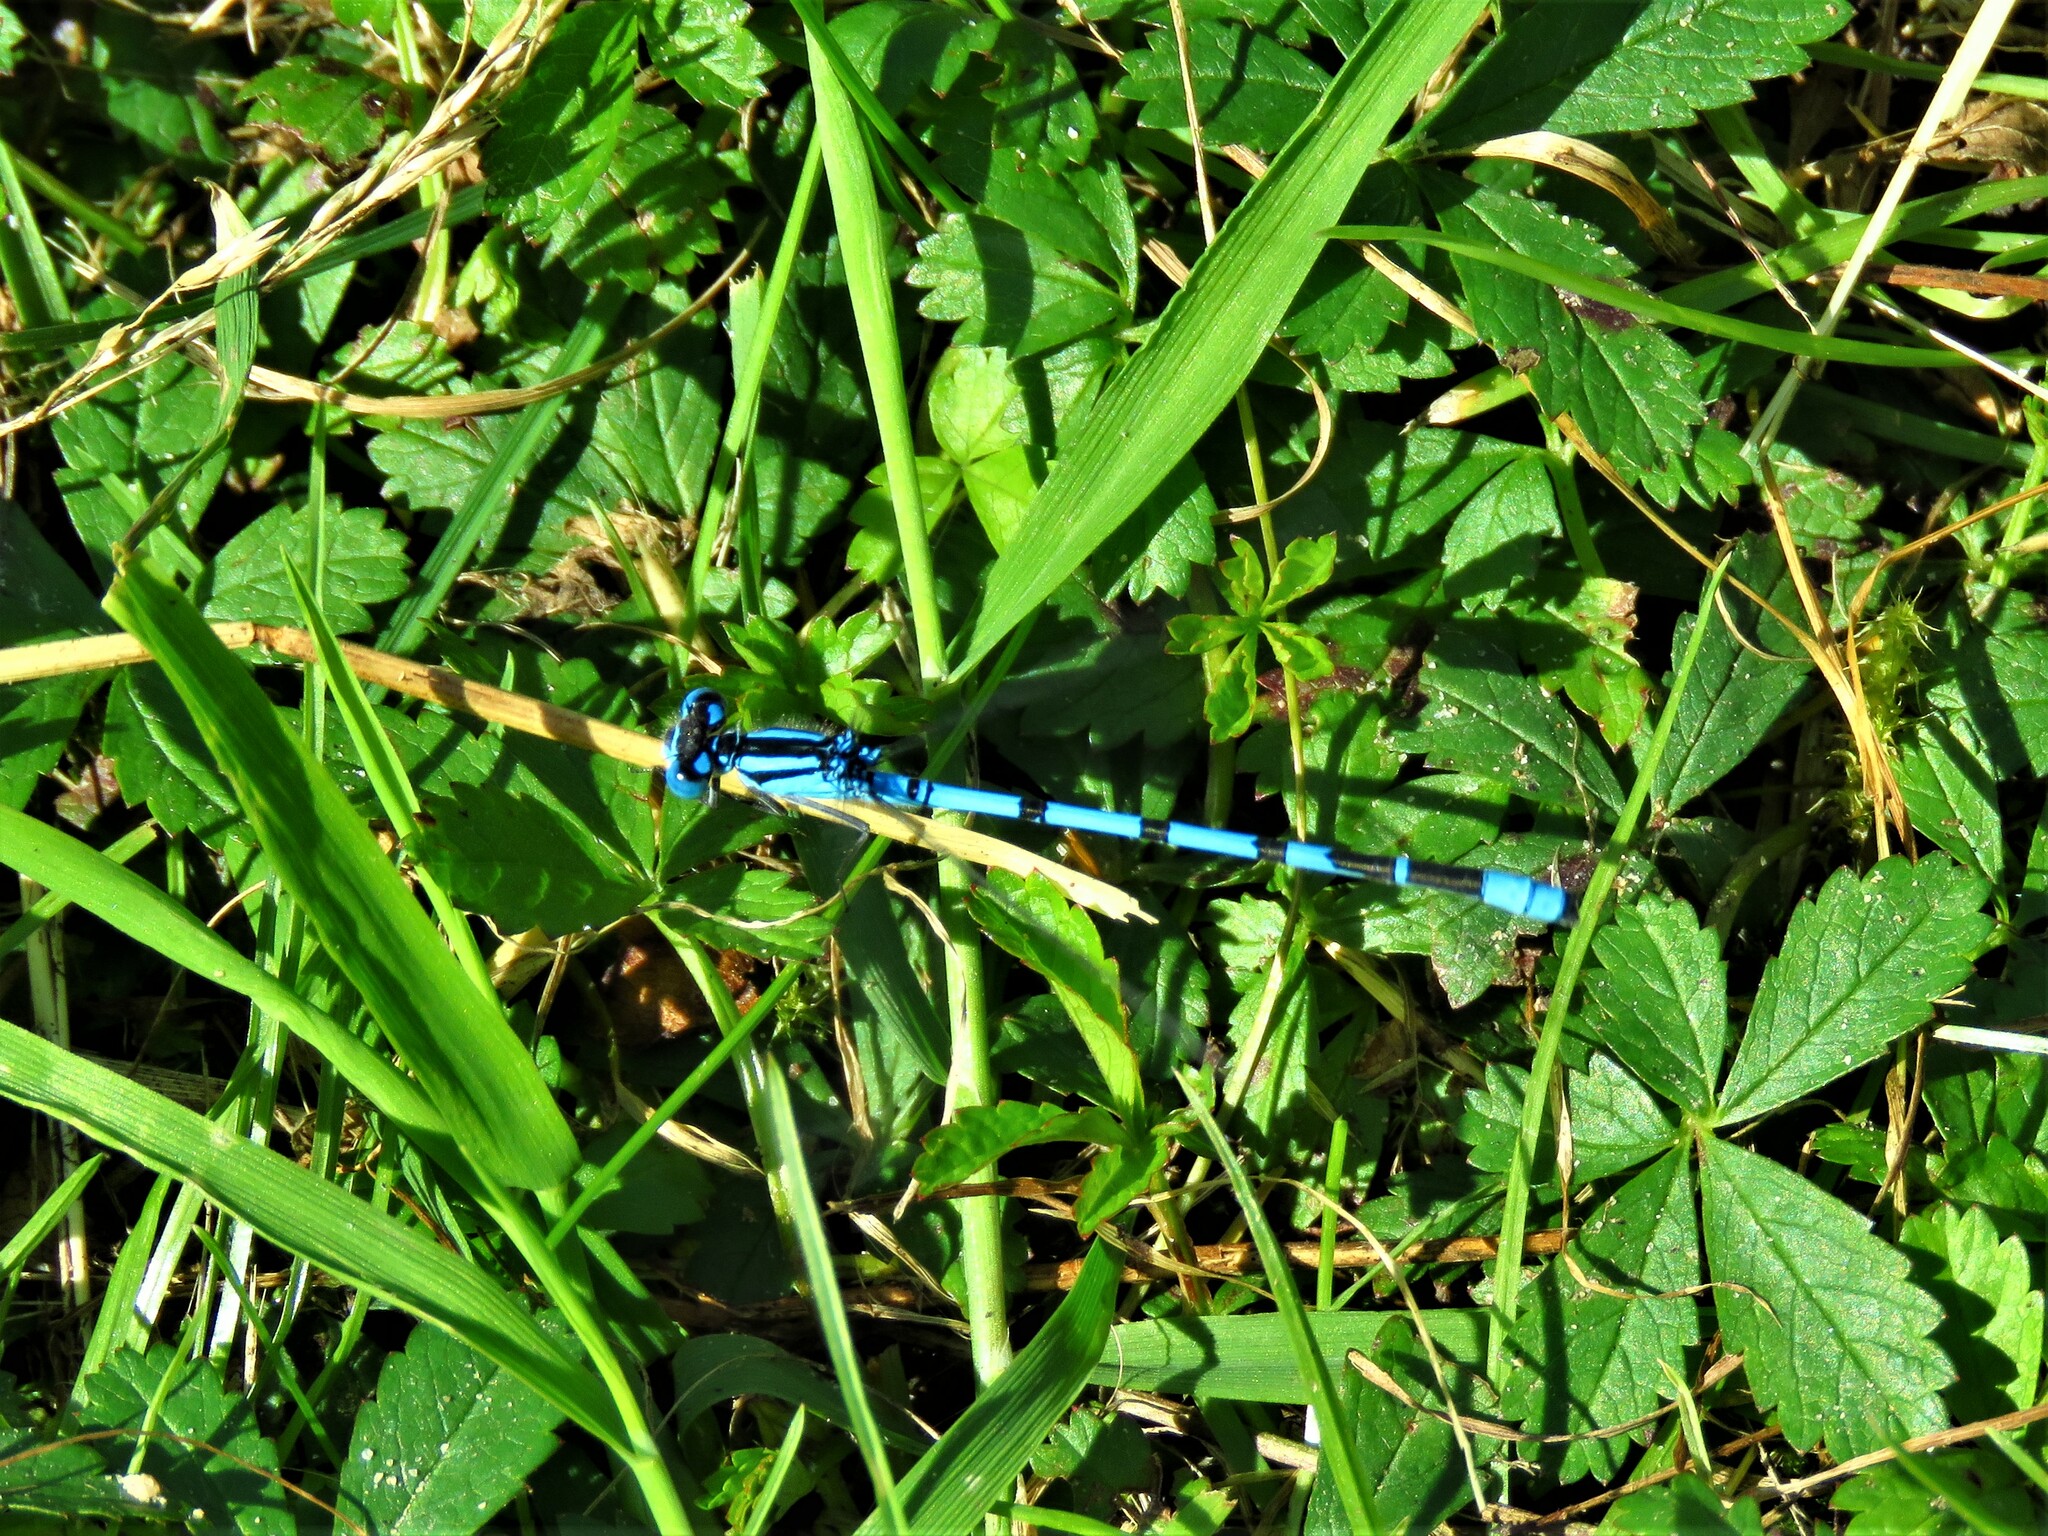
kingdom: Animalia
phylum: Arthropoda
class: Insecta
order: Odonata
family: Coenagrionidae
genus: Enallagma
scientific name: Enallagma cyathigerum
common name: Common blue damselfly
